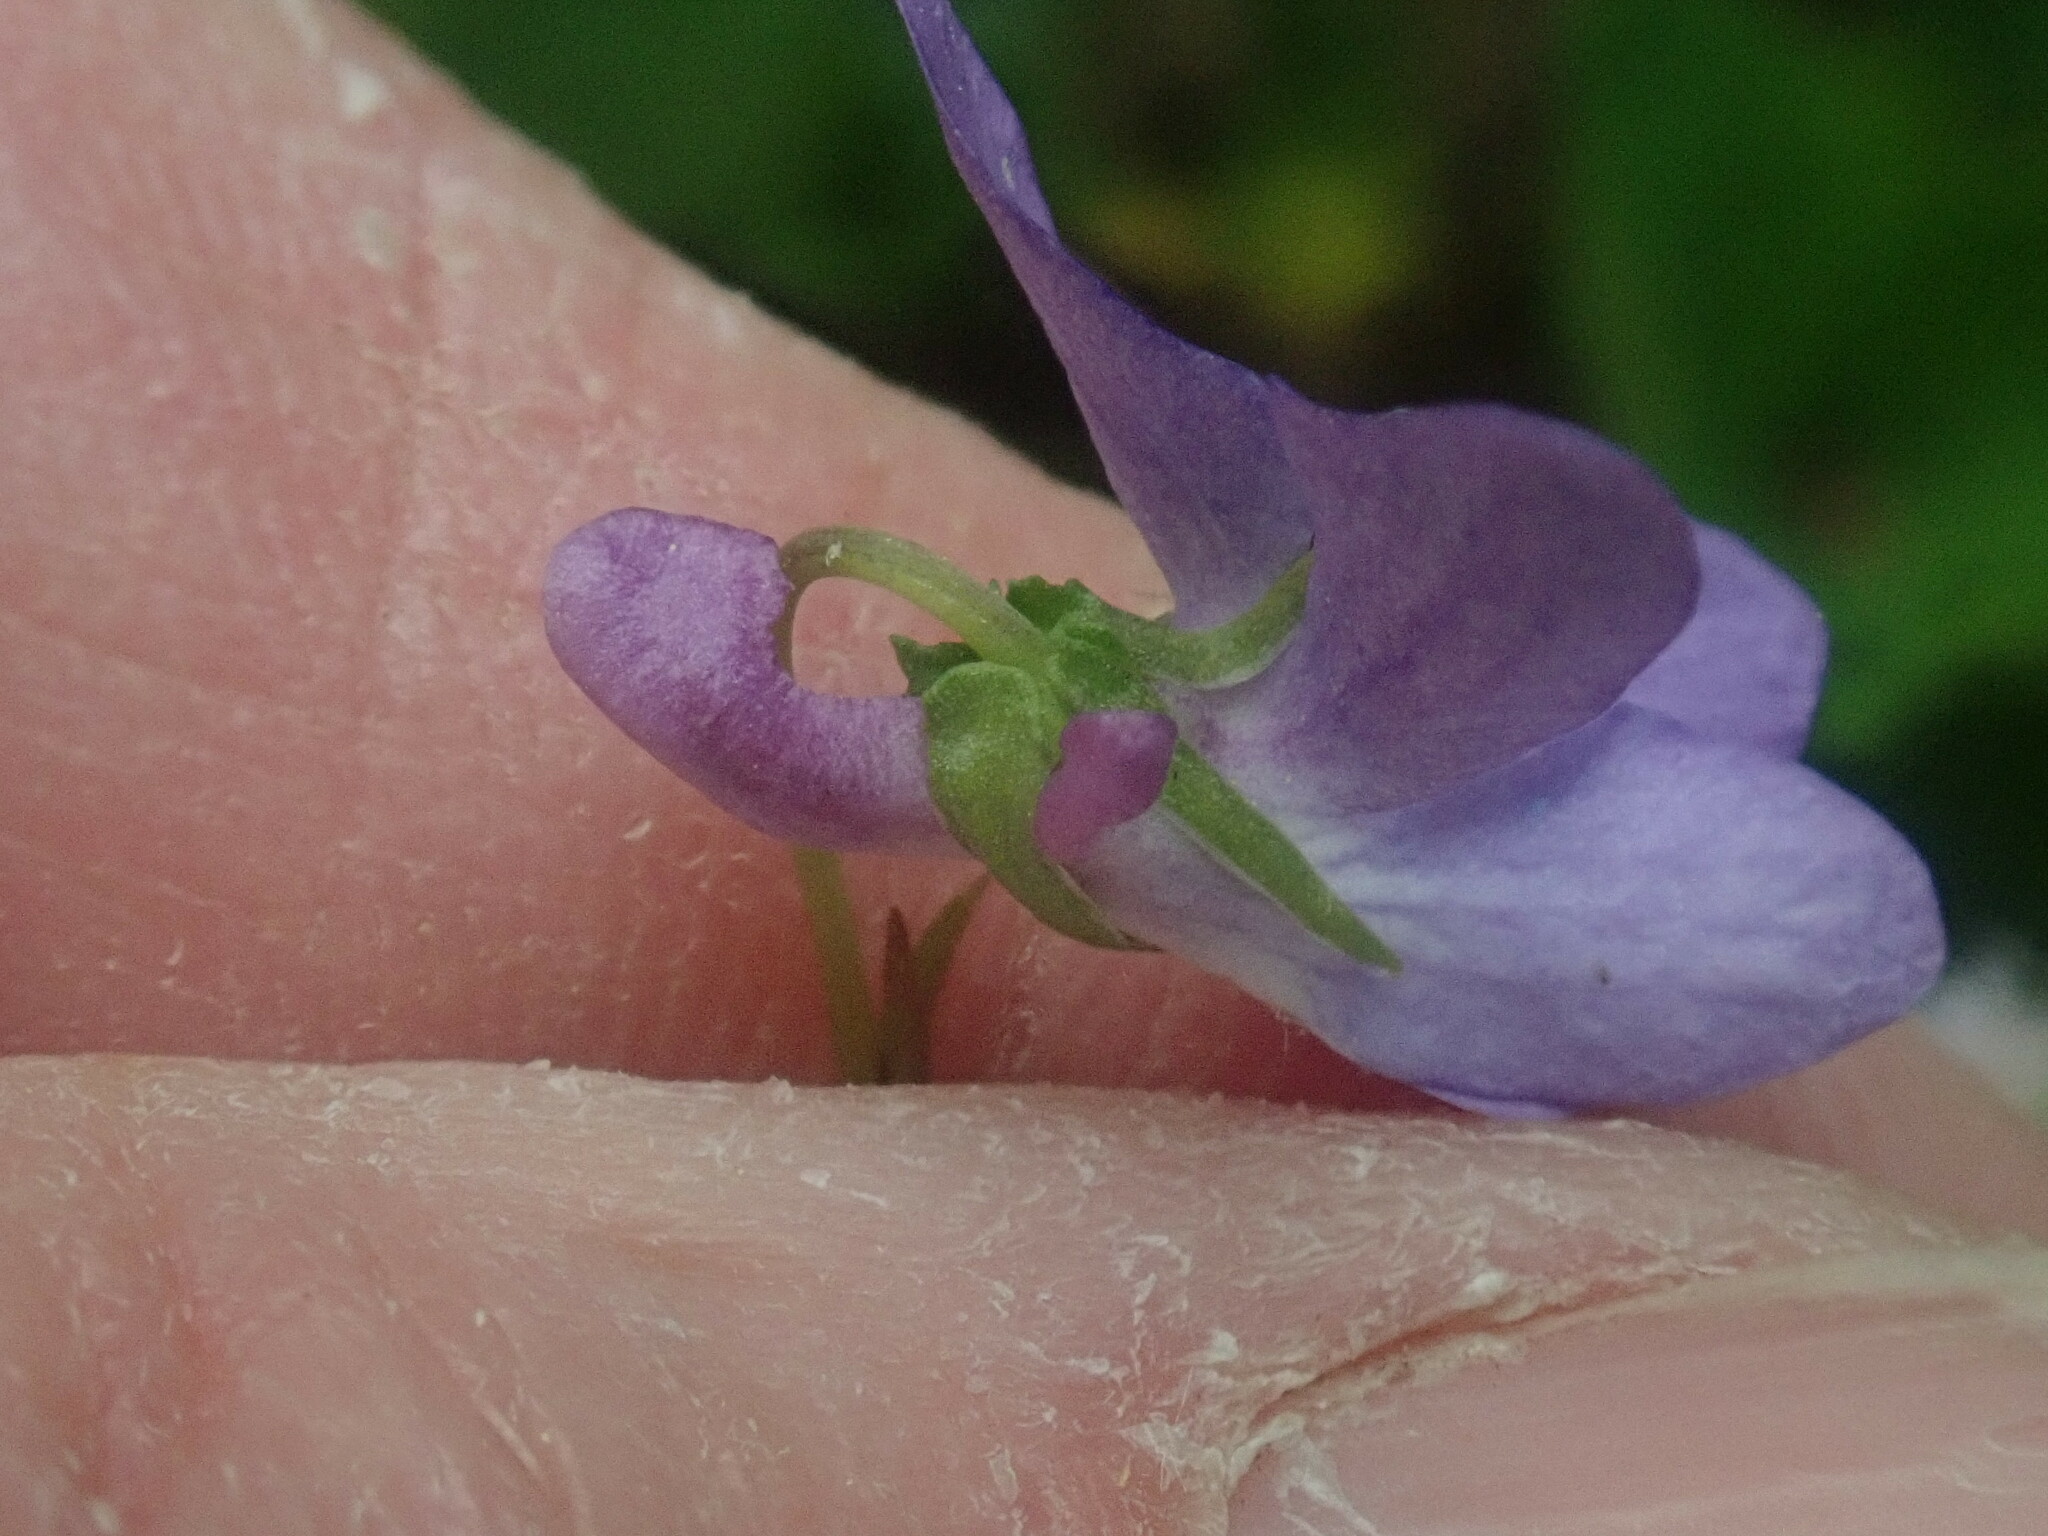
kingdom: Plantae
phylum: Tracheophyta
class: Magnoliopsida
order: Malpighiales
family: Violaceae
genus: Viola
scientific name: Viola labradorica
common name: Labrador violet
